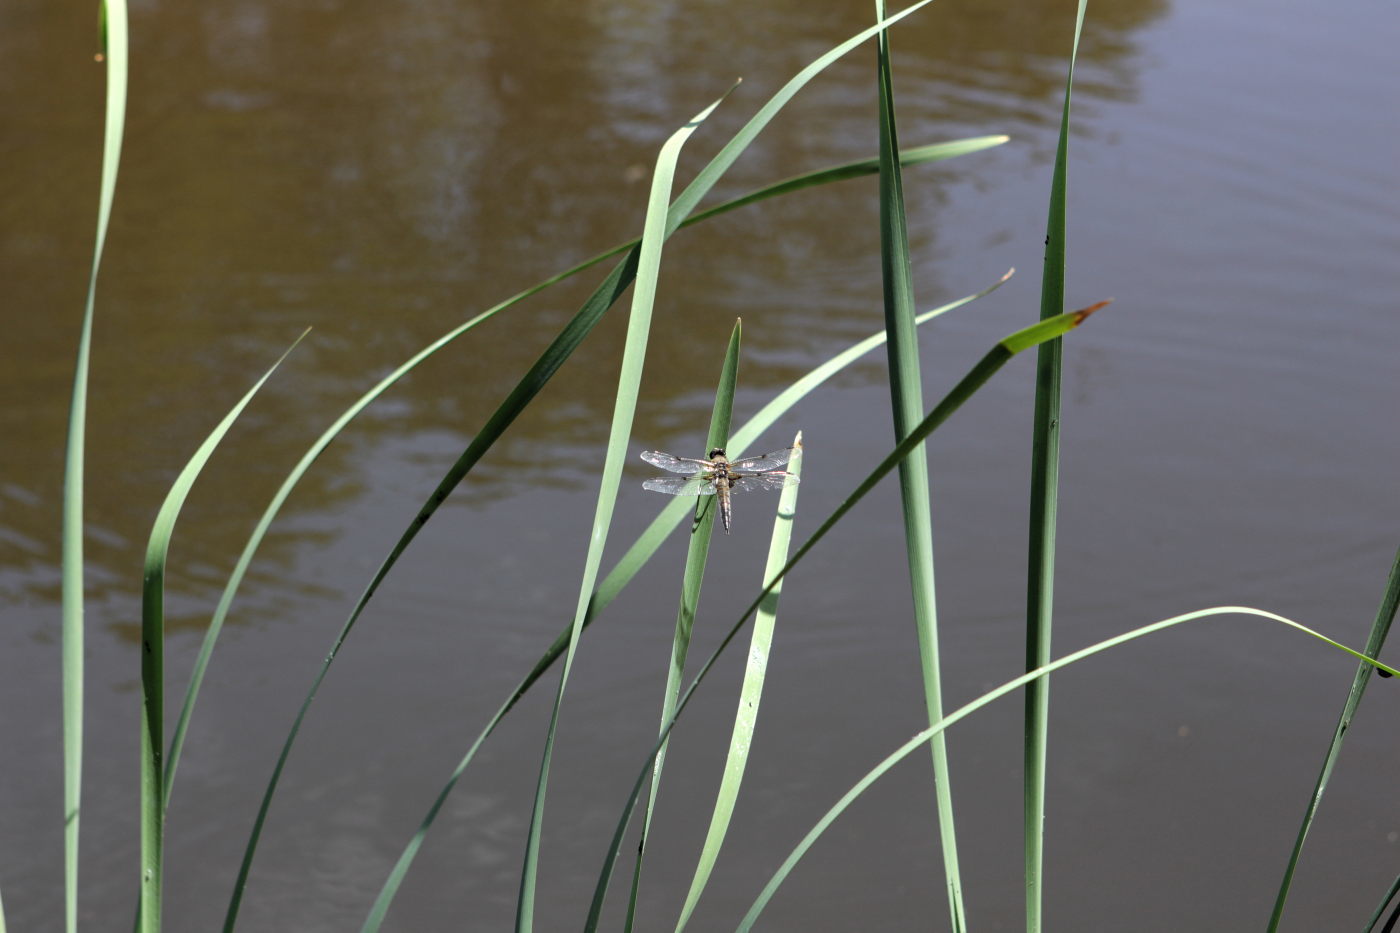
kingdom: Animalia
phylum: Arthropoda
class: Insecta
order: Odonata
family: Libellulidae
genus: Libellula
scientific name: Libellula quadrimaculata
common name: Four-spotted chaser
